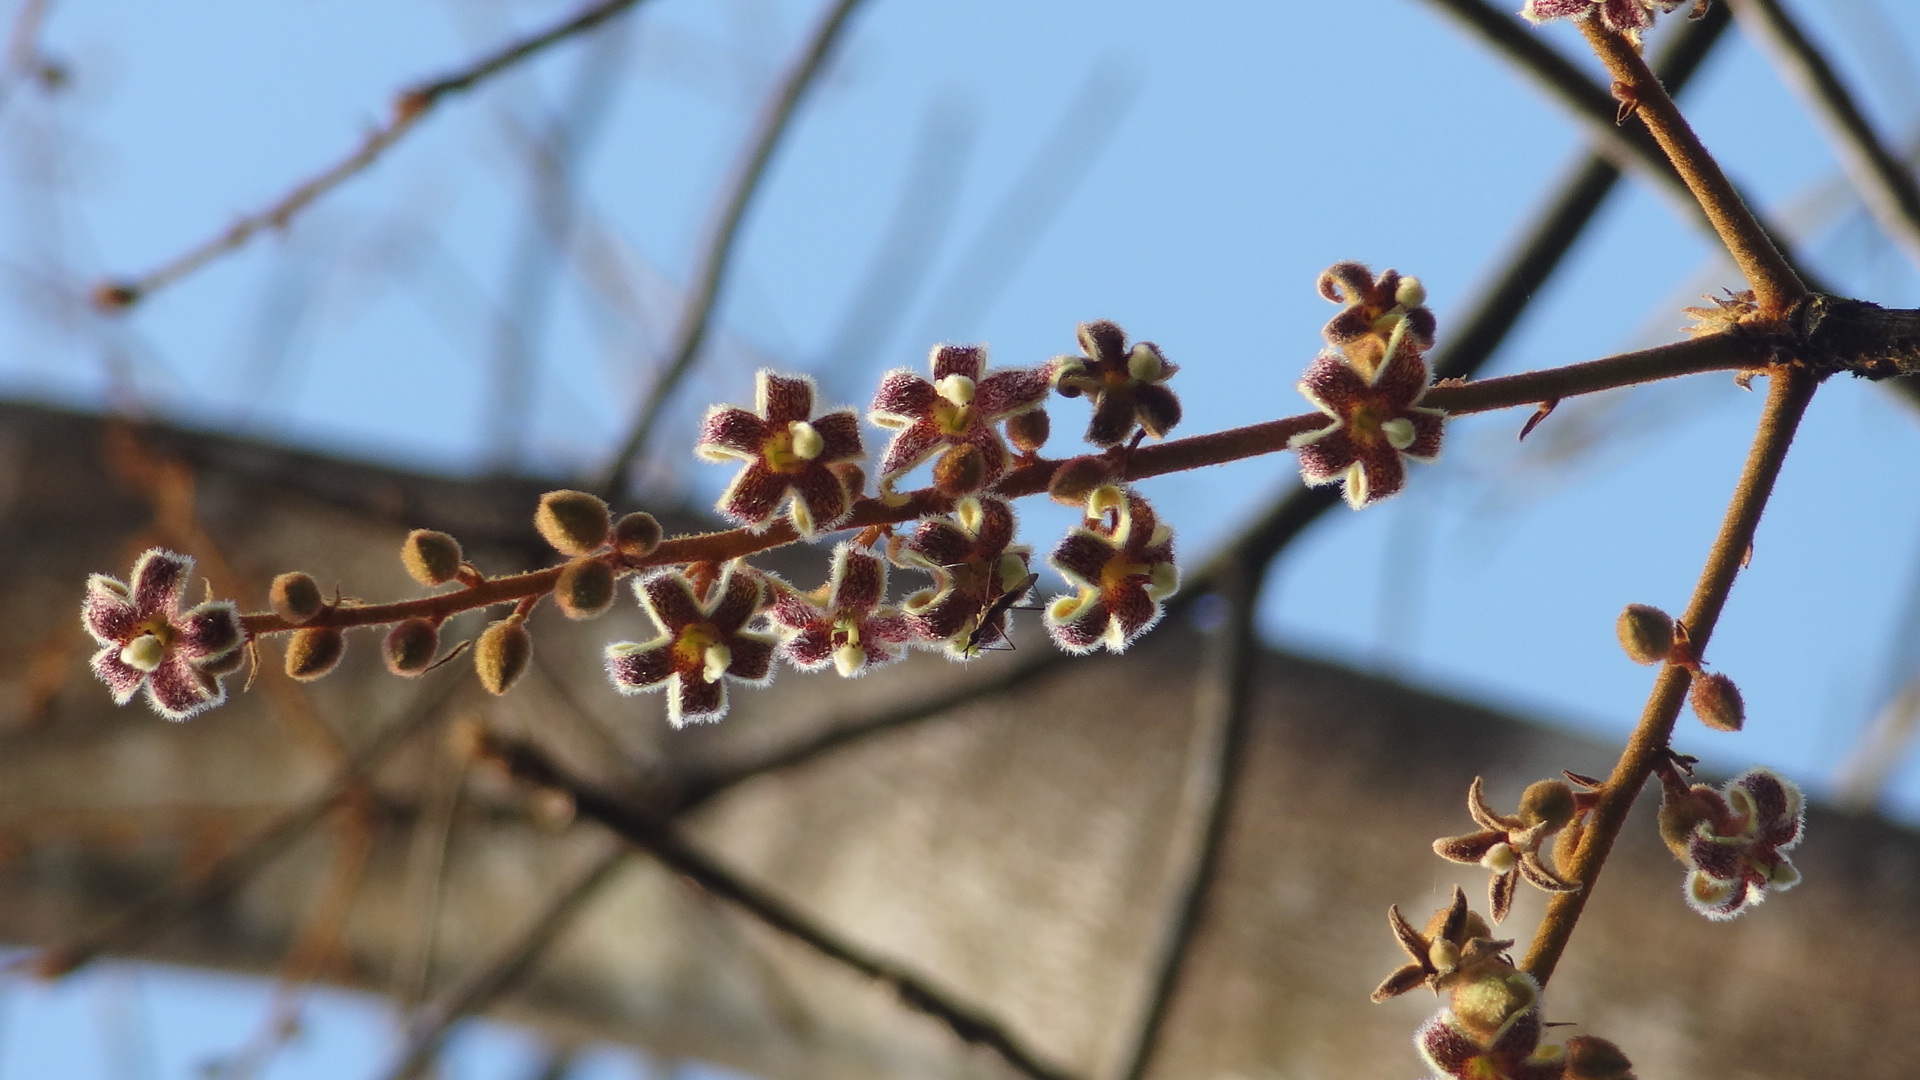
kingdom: Plantae
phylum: Tracheophyta
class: Magnoliopsida
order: Malvales
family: Malvaceae
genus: Sterculia
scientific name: Sterculia guttata
